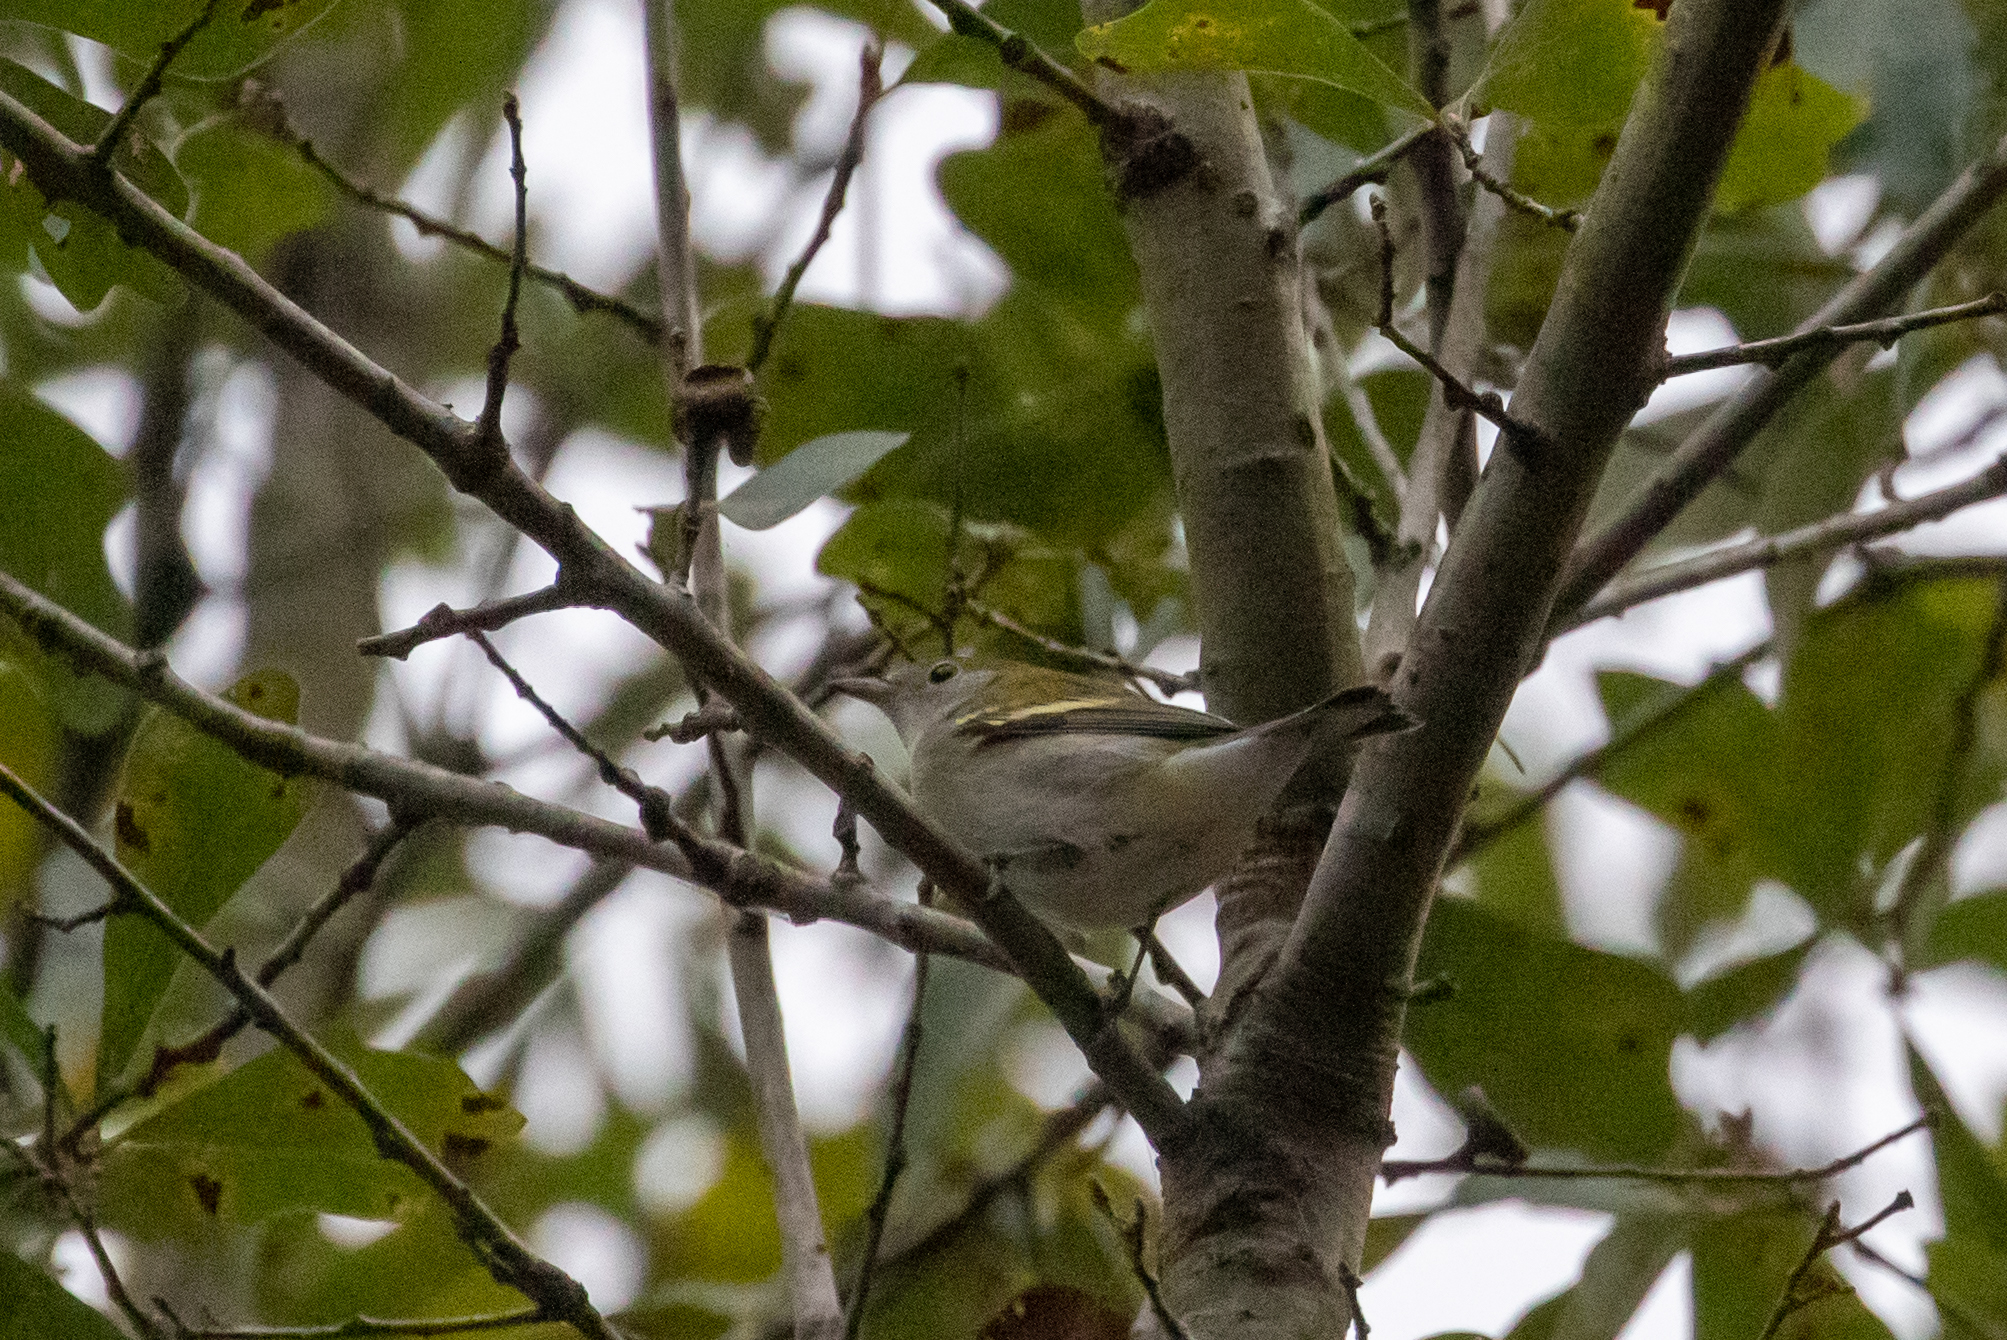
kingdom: Animalia
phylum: Chordata
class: Aves
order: Passeriformes
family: Parulidae
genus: Setophaga
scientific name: Setophaga pensylvanica
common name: Chestnut-sided warbler
